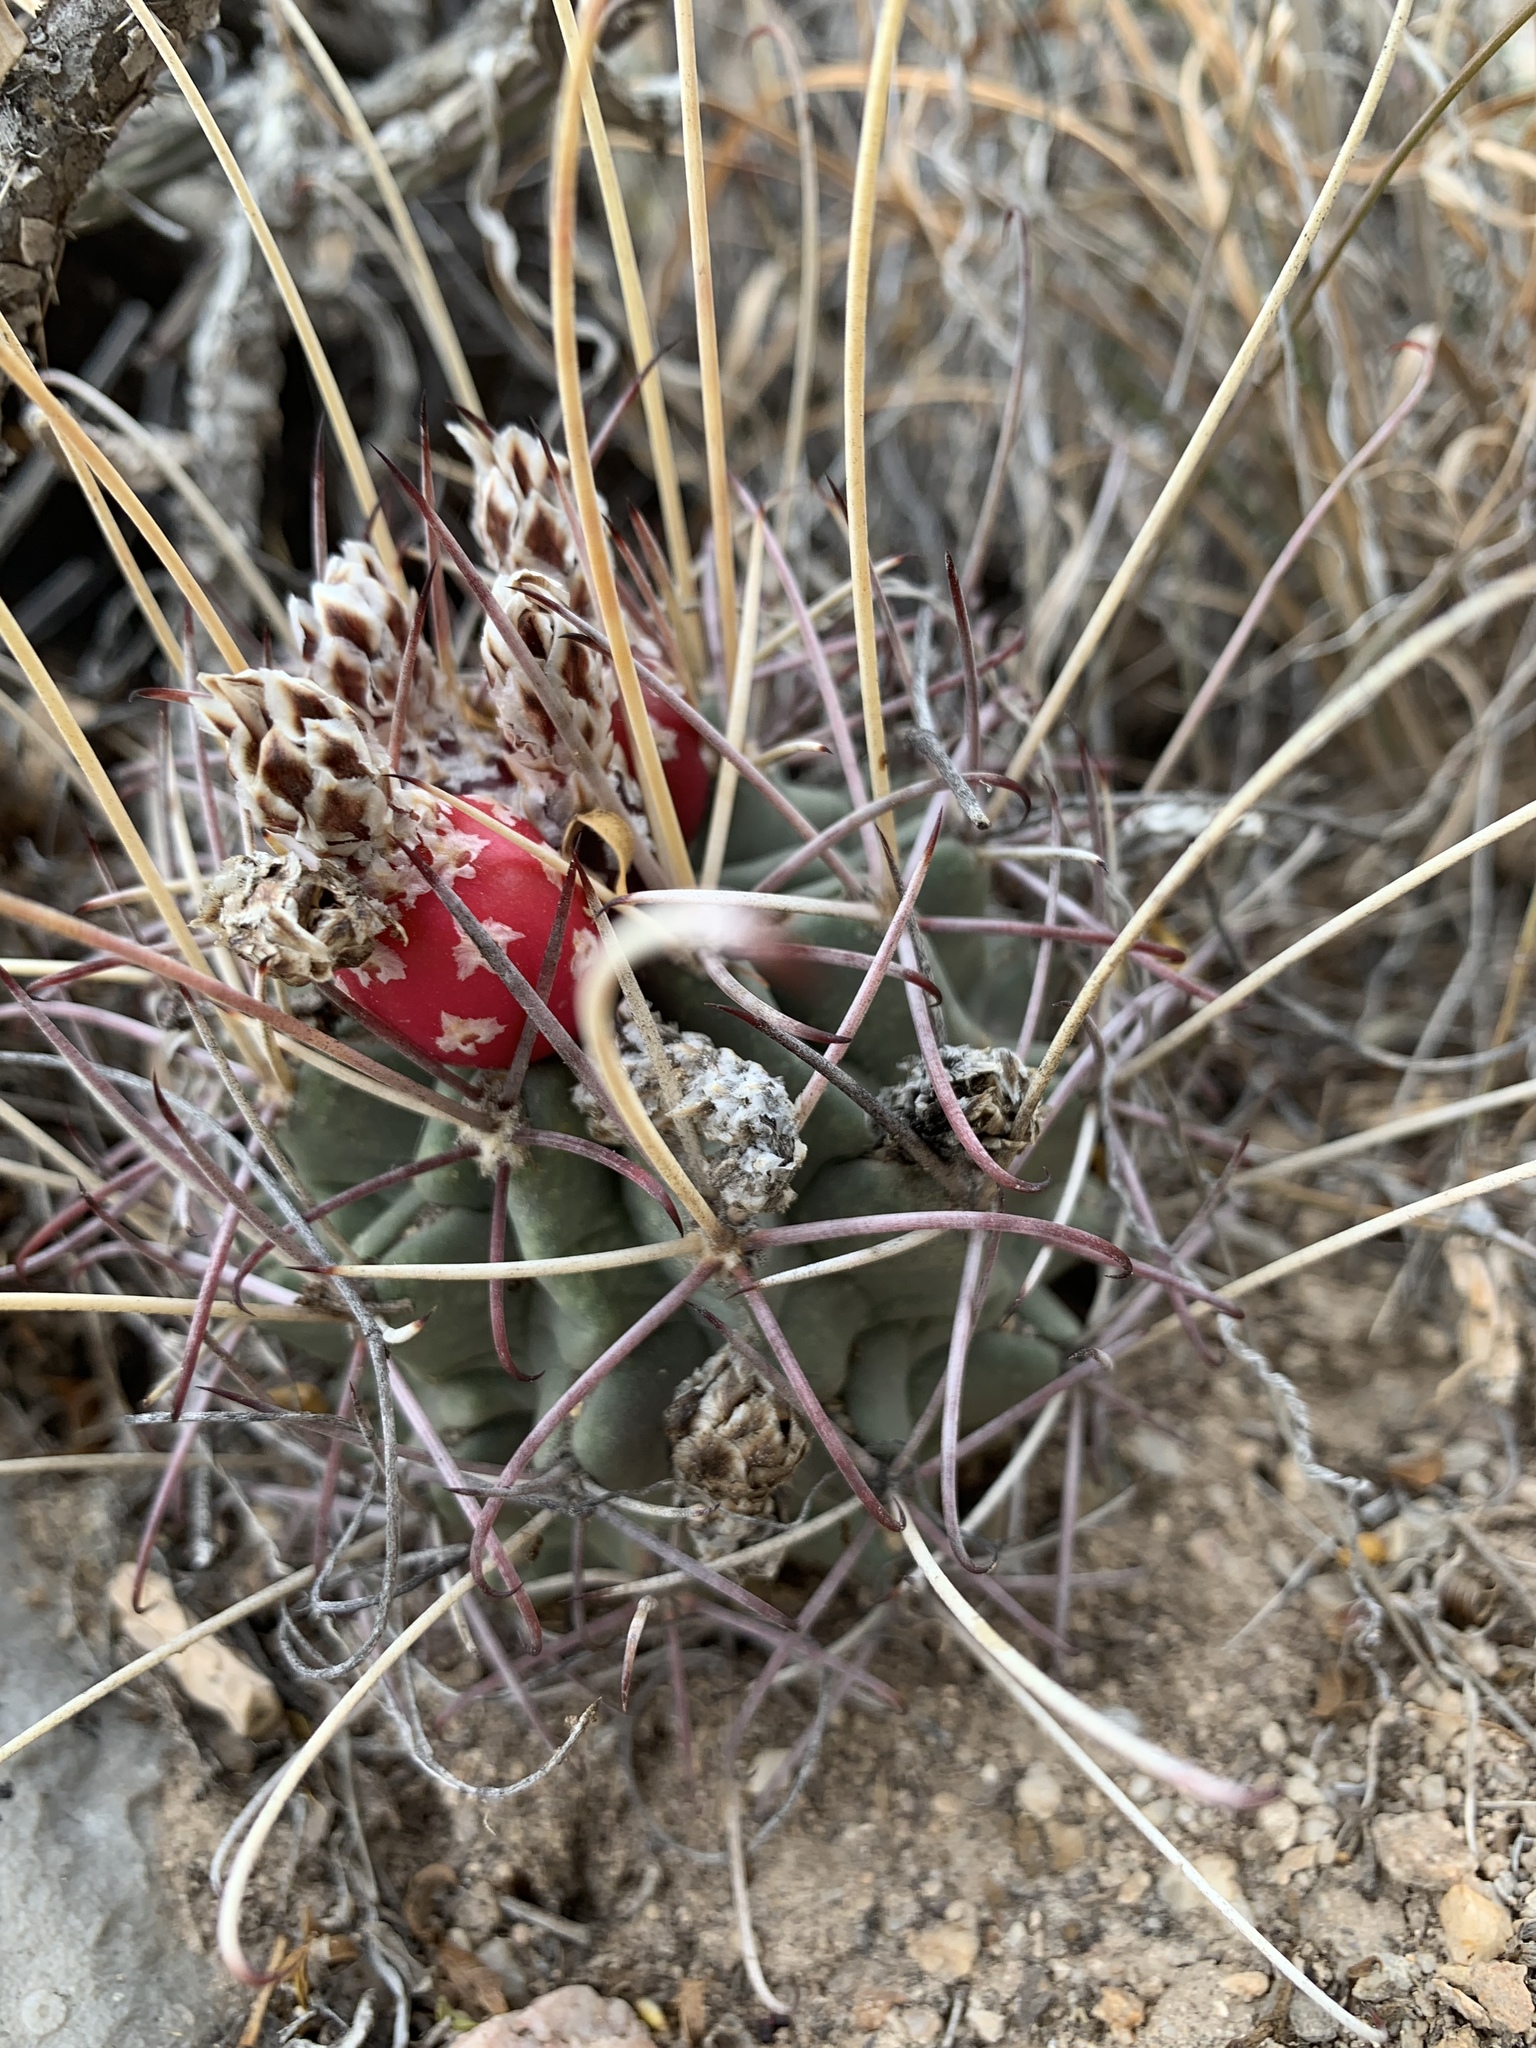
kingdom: Plantae
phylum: Tracheophyta
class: Magnoliopsida
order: Caryophyllales
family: Cactaceae
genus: Ferocactus
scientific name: Ferocactus uncinatus
